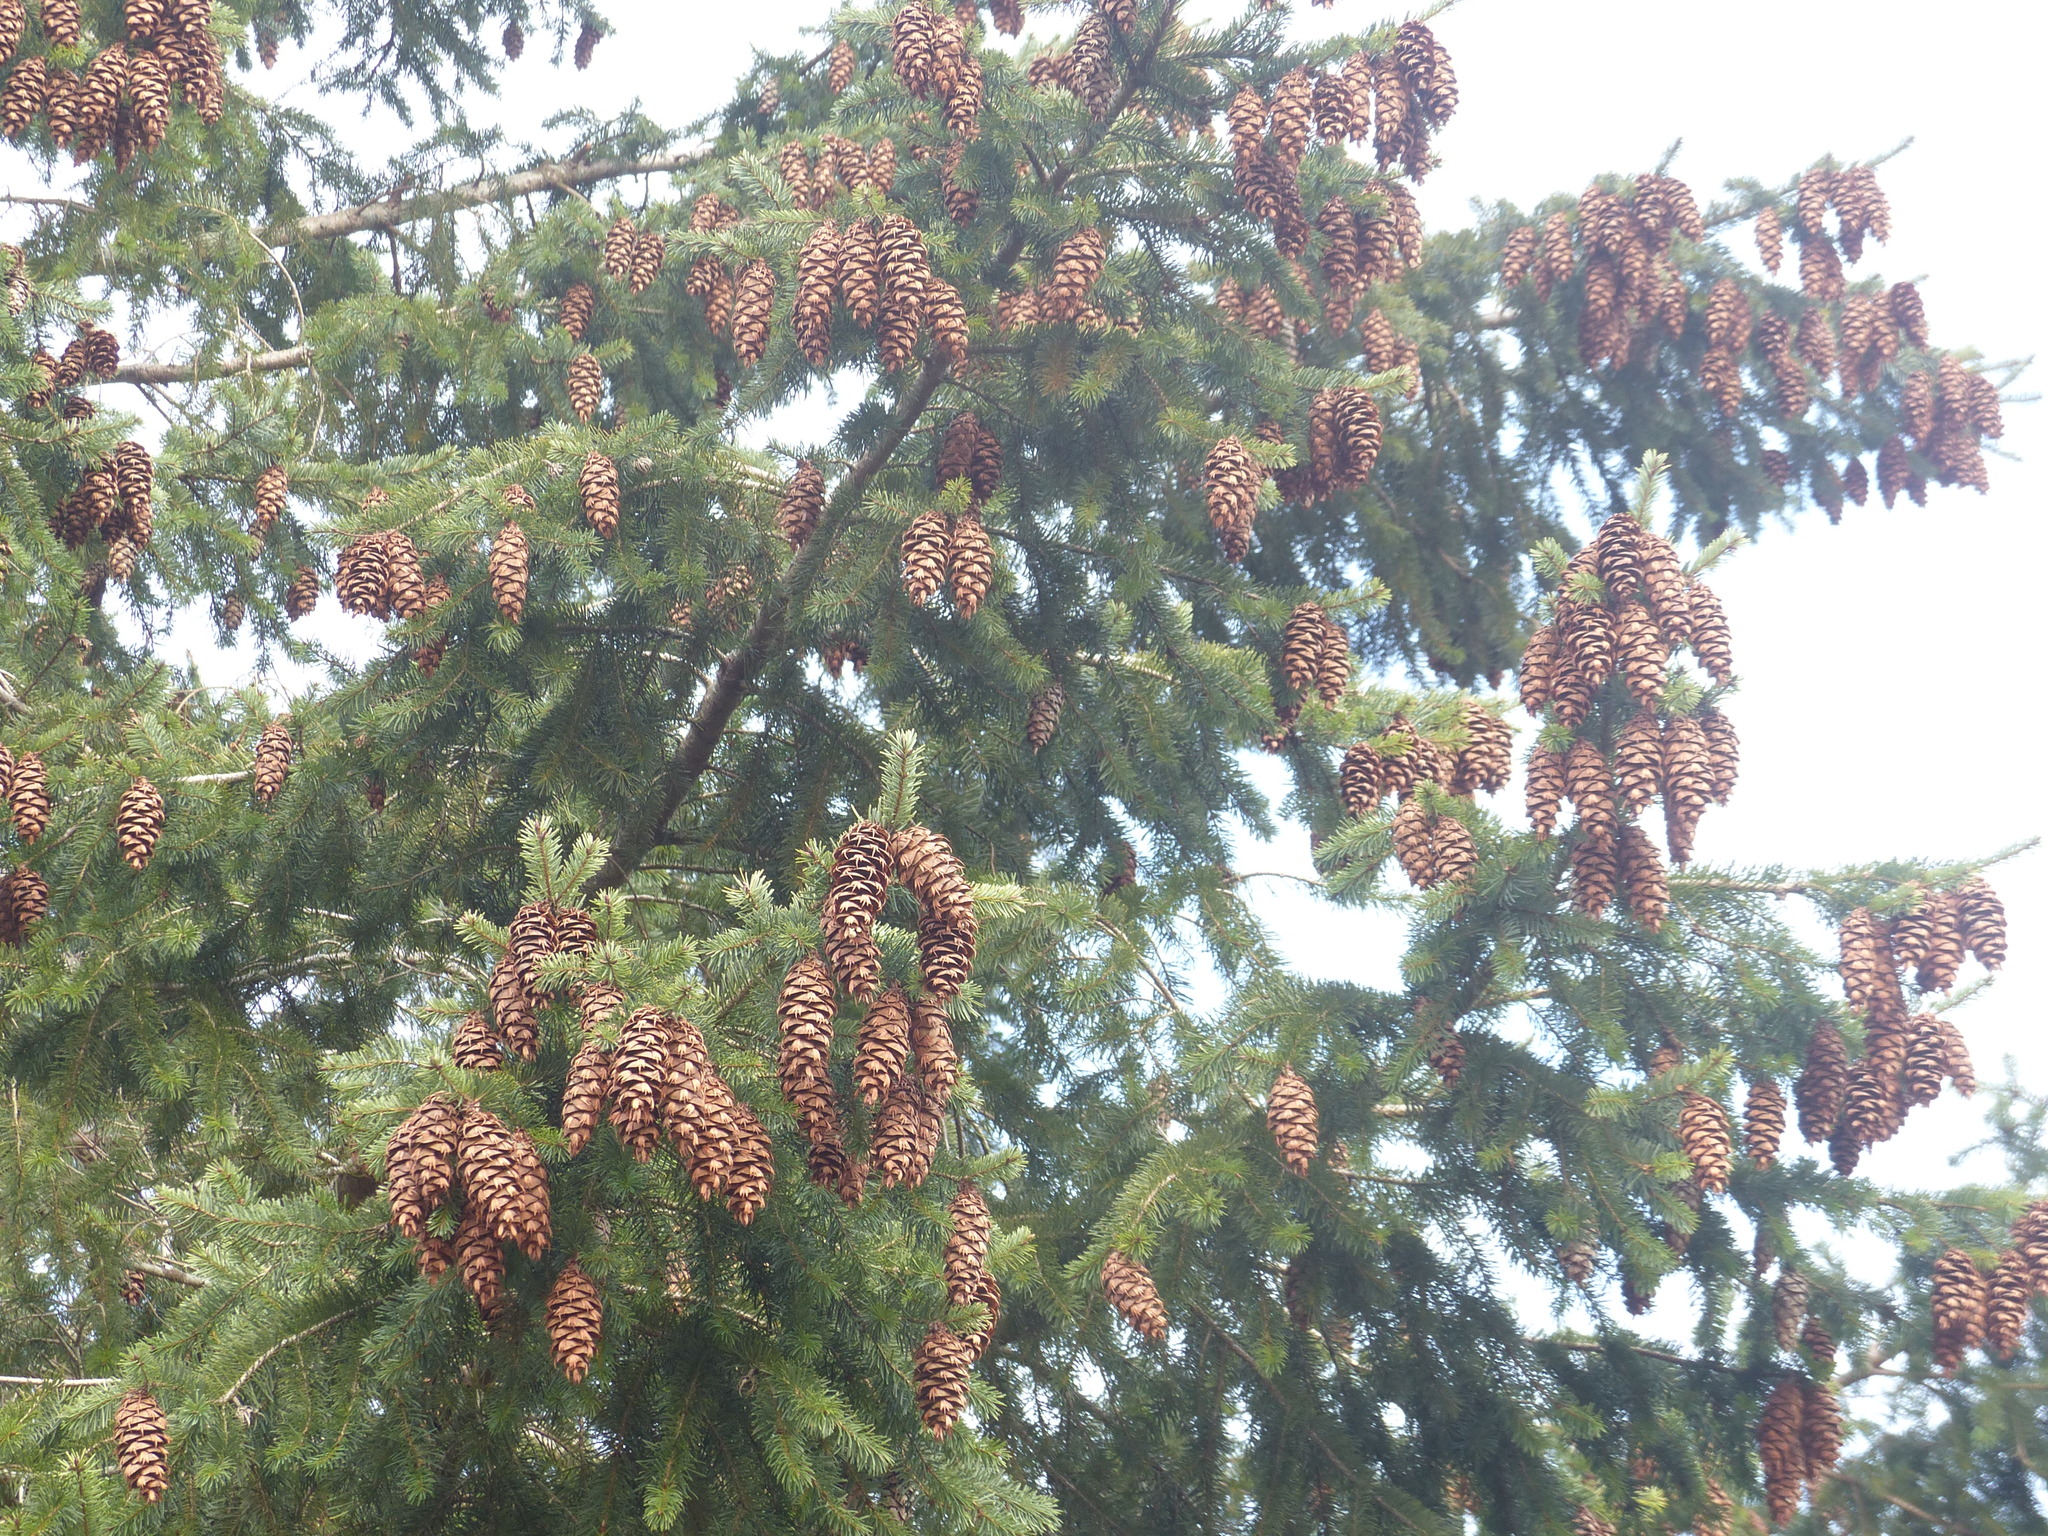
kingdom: Plantae
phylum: Tracheophyta
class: Pinopsida
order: Pinales
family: Pinaceae
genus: Pseudotsuga
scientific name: Pseudotsuga menziesii
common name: Douglas fir
